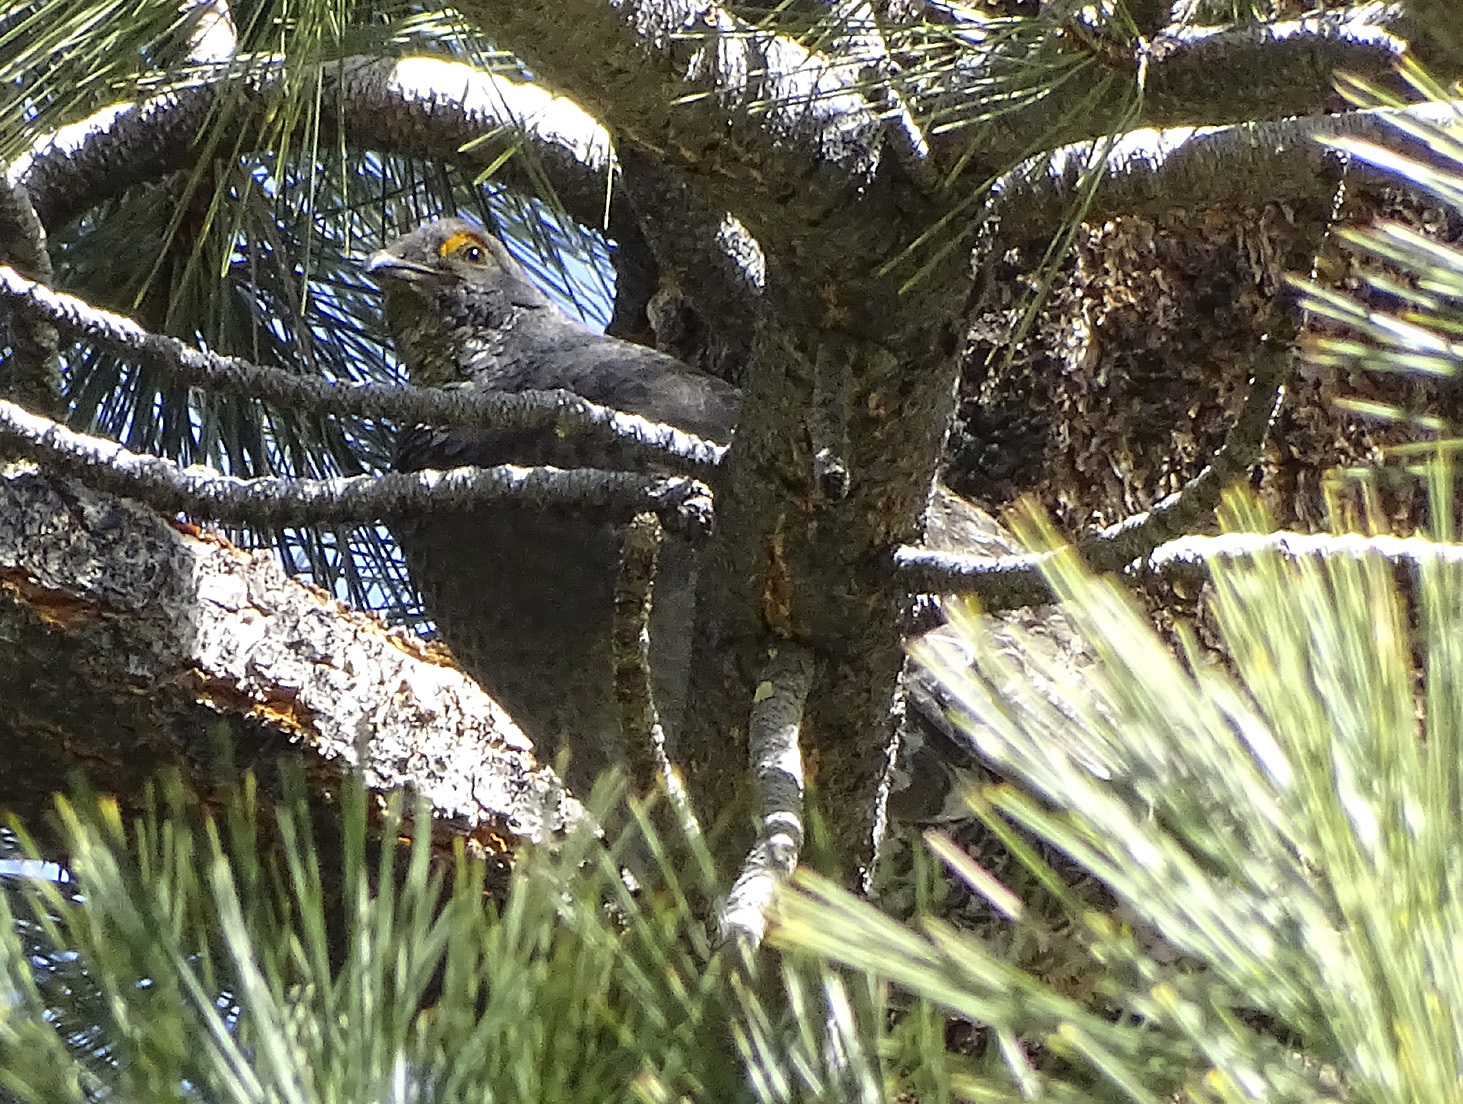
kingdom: Animalia
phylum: Chordata
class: Aves
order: Galliformes
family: Phasianidae
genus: Dendragapus
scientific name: Dendragapus fuliginosus
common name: Sooty grouse
